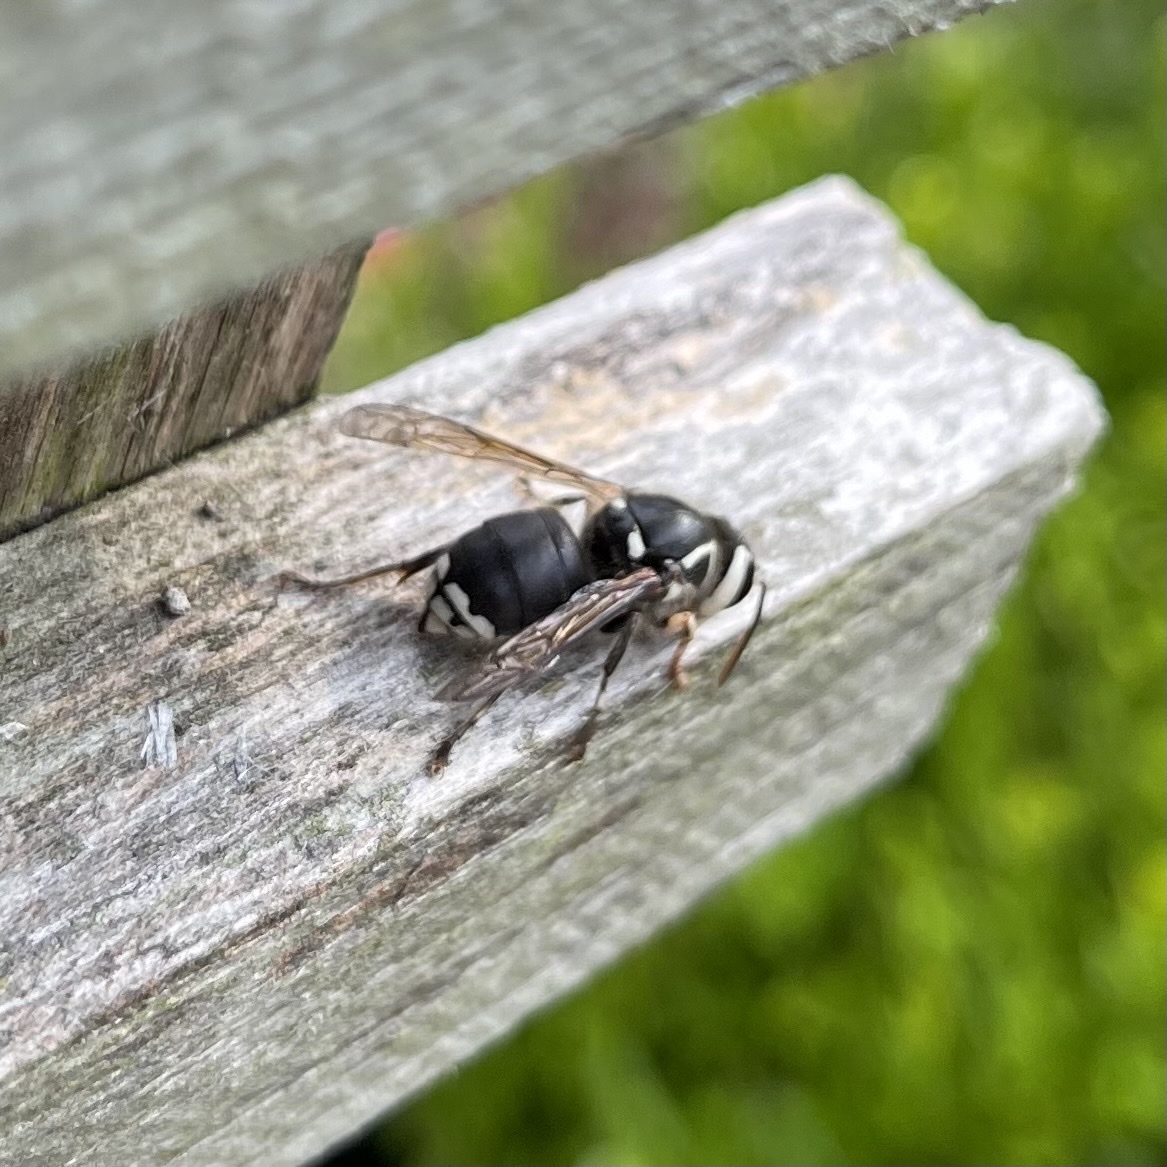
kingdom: Animalia
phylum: Arthropoda
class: Insecta
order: Hymenoptera
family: Vespidae
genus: Dolichovespula
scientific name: Dolichovespula maculata
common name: Bald-faced hornet
